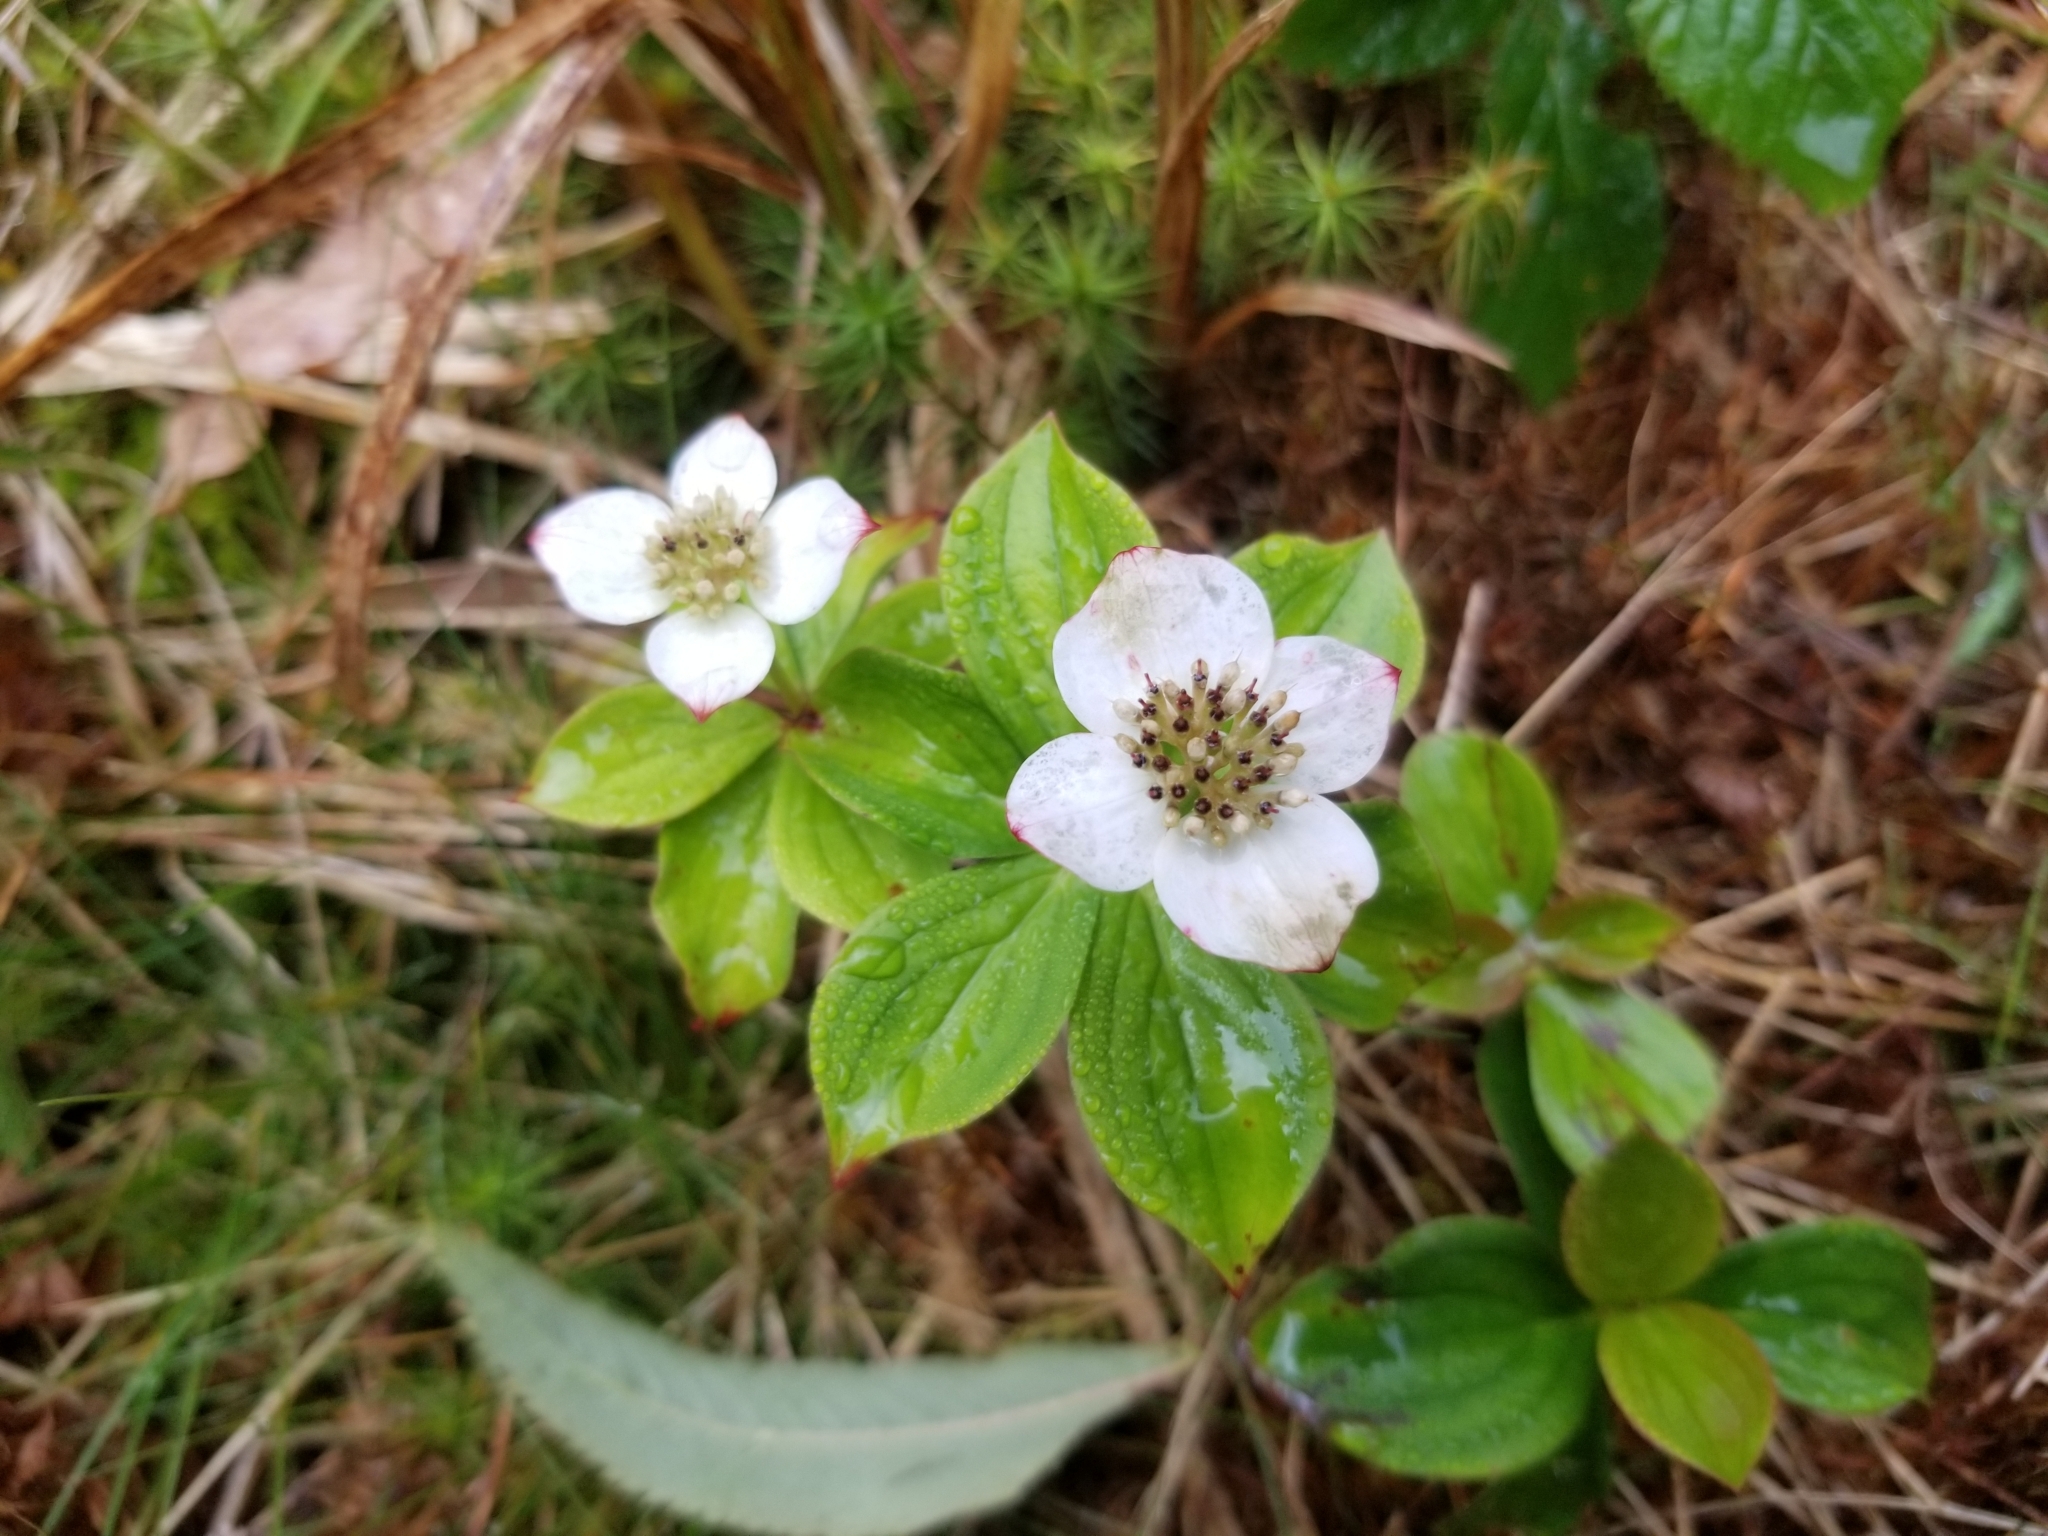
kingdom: Plantae
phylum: Tracheophyta
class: Magnoliopsida
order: Cornales
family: Cornaceae
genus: Cornus
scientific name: Cornus canadensis
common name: Creeping dogwood
